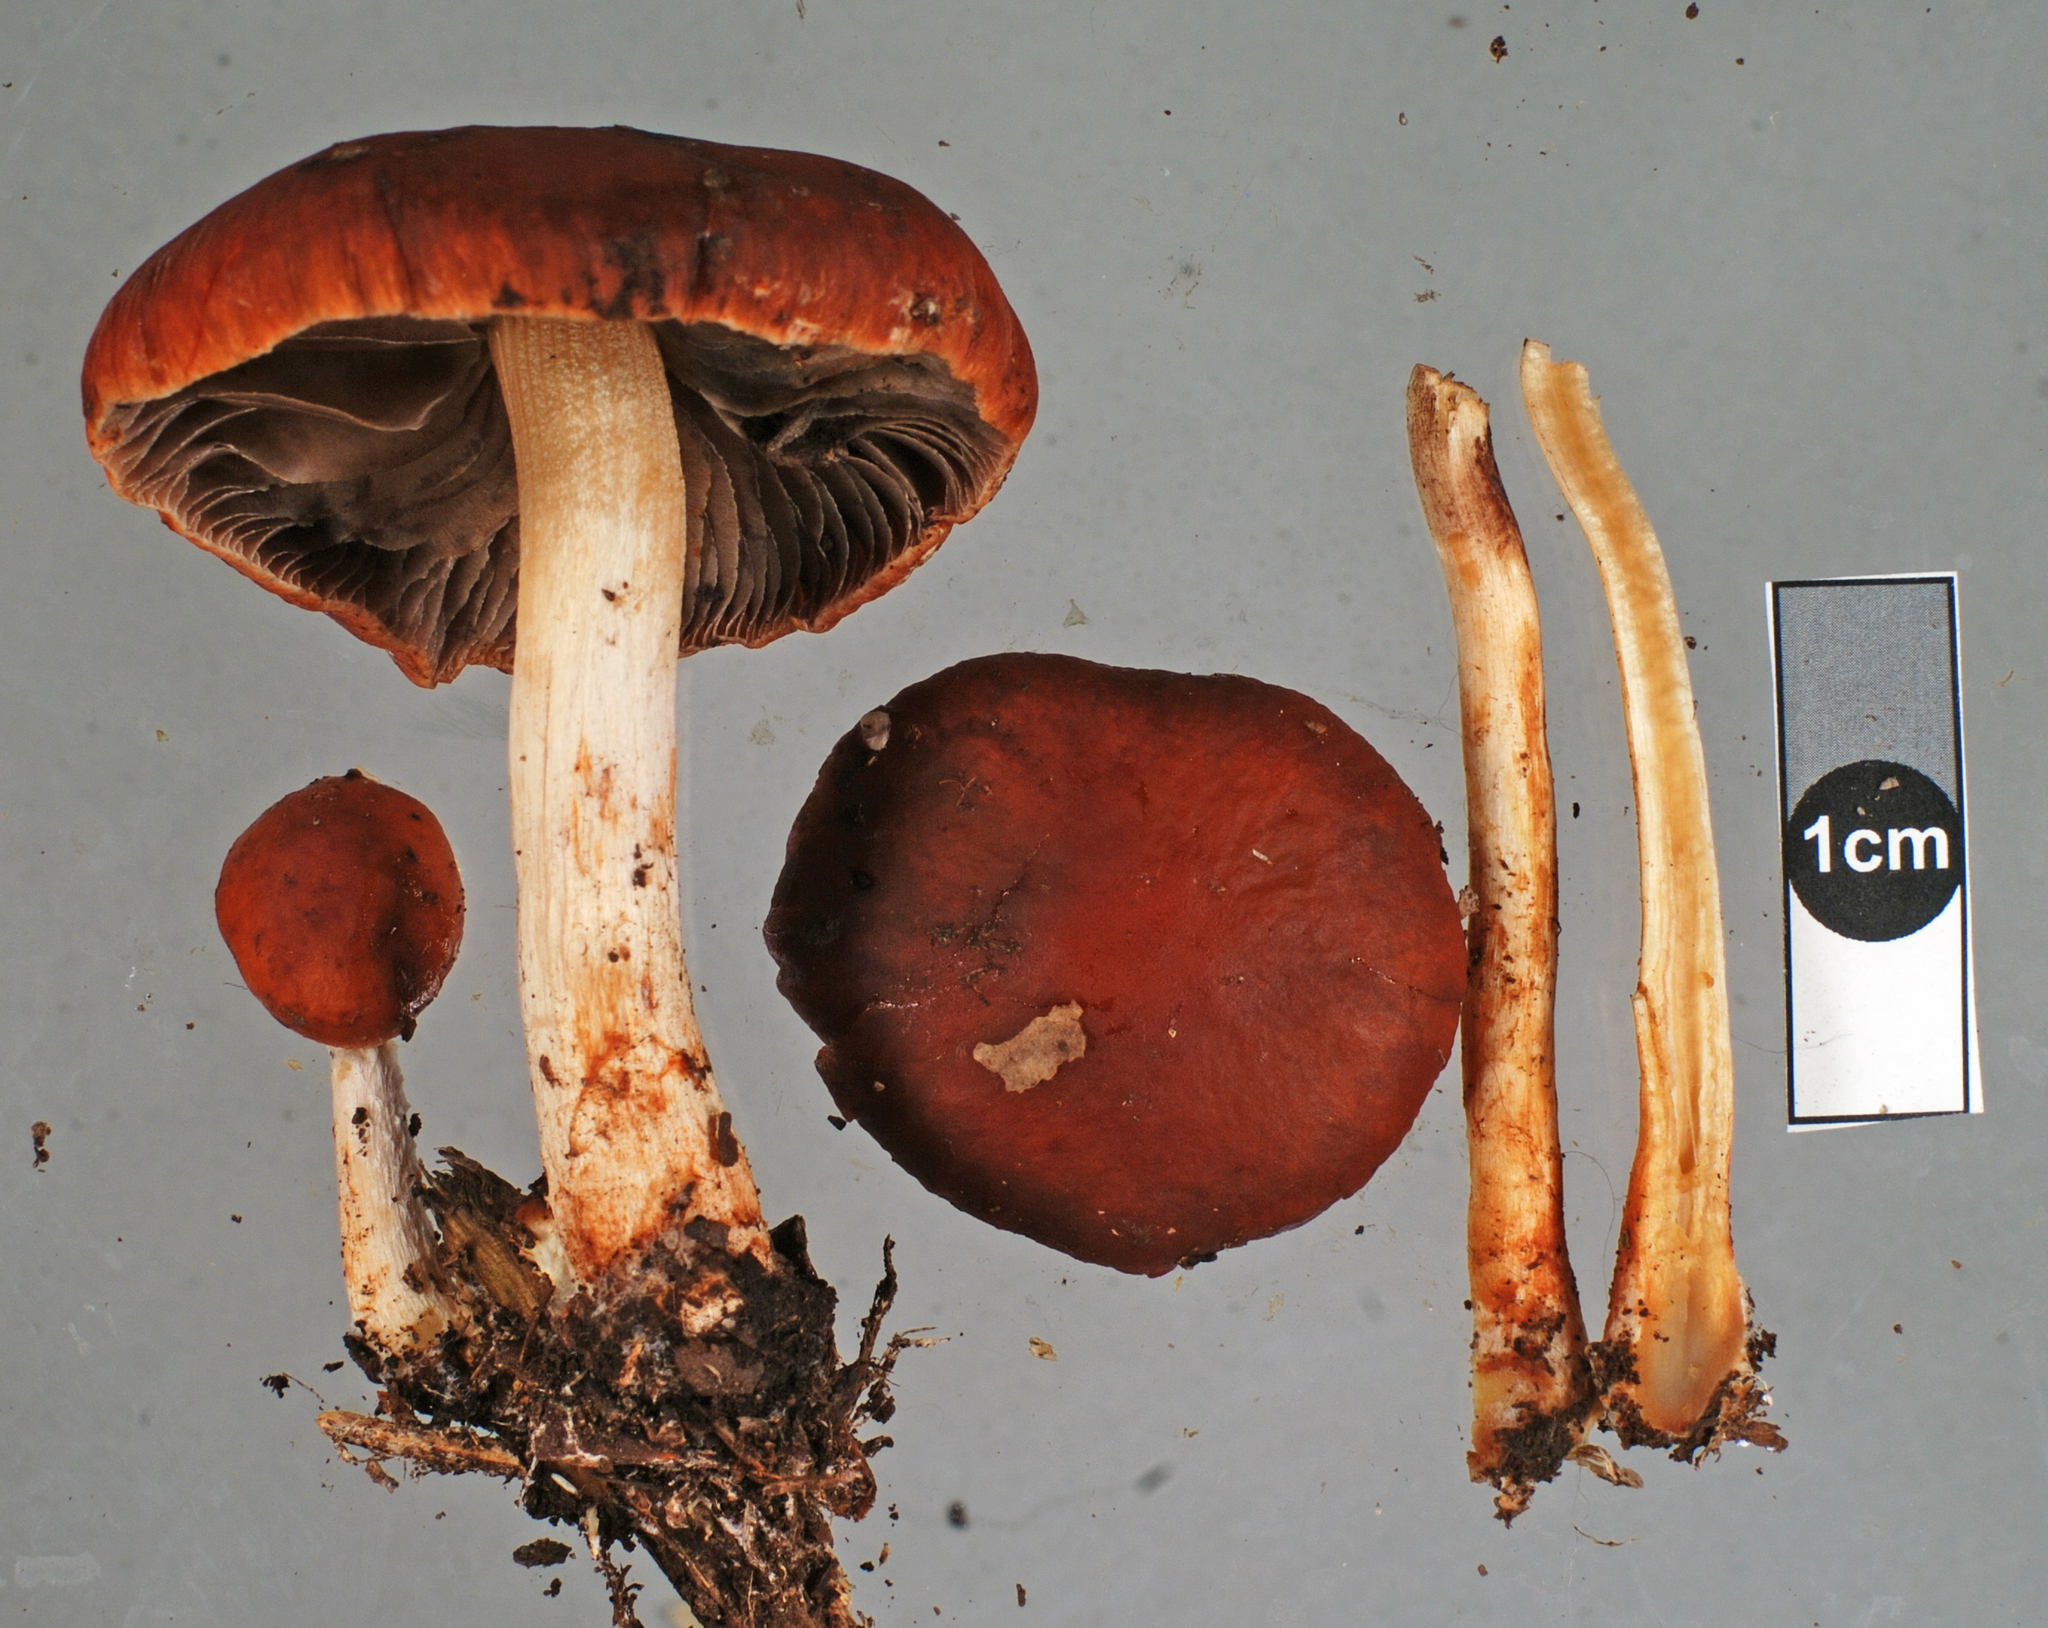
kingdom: Fungi
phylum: Basidiomycota
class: Agaricomycetes
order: Agaricales
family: Strophariaceae
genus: Leratiomyces
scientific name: Leratiomyces ceres
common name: Redlead roundhead
